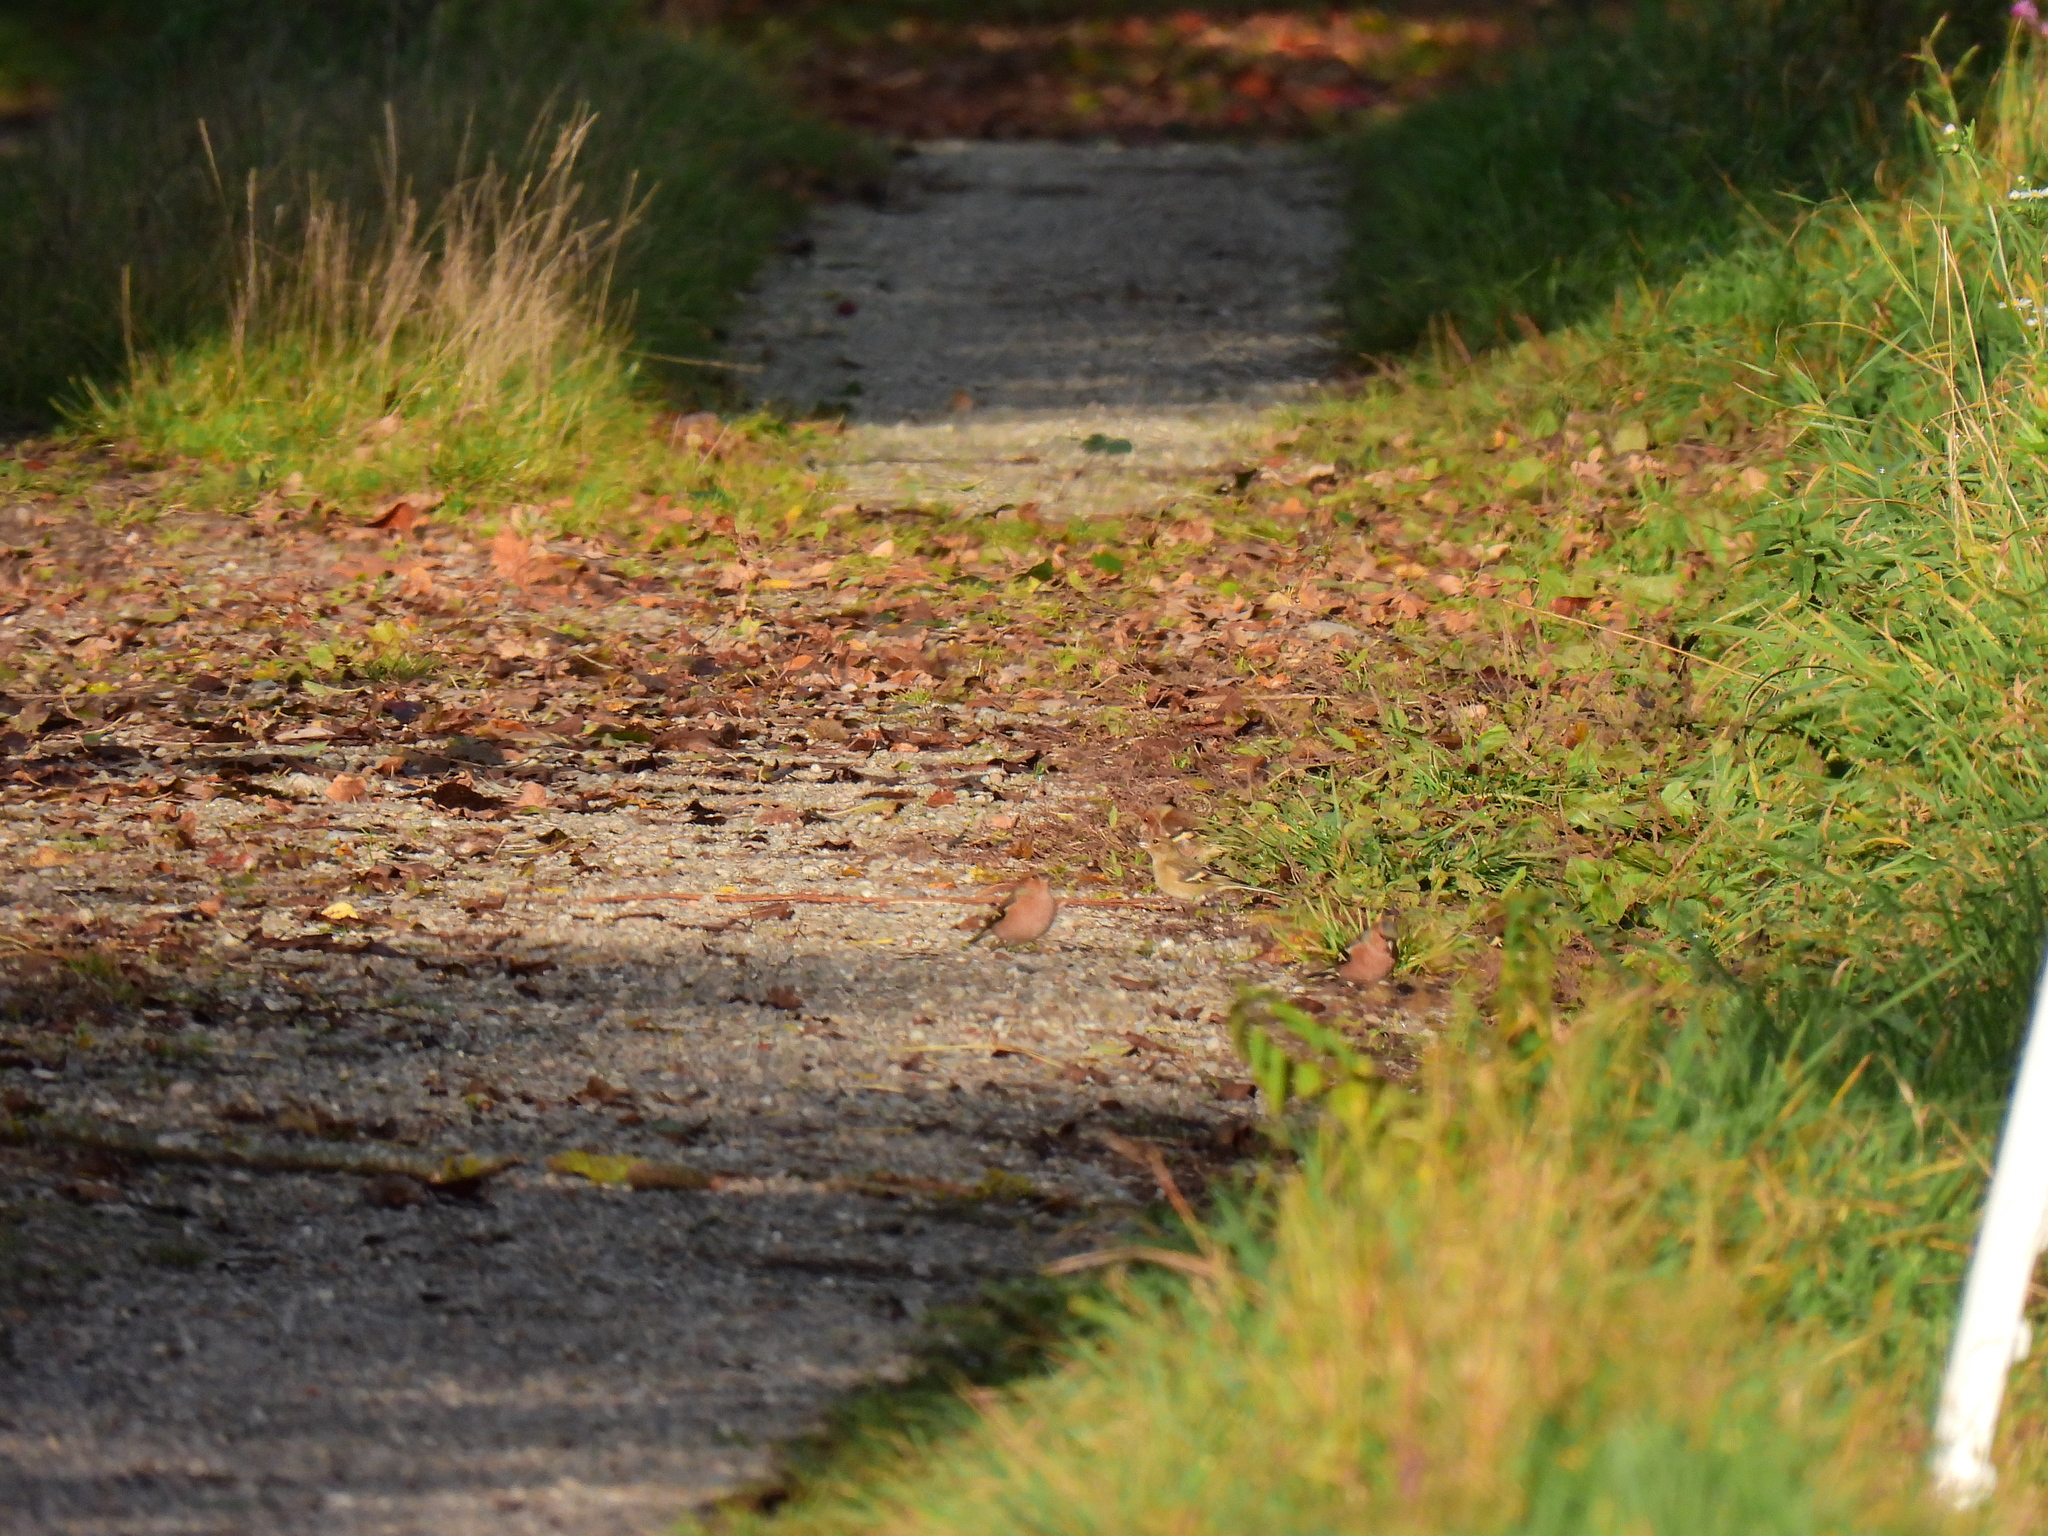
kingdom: Animalia
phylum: Chordata
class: Aves
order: Passeriformes
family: Fringillidae
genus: Fringilla
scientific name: Fringilla coelebs
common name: Common chaffinch
